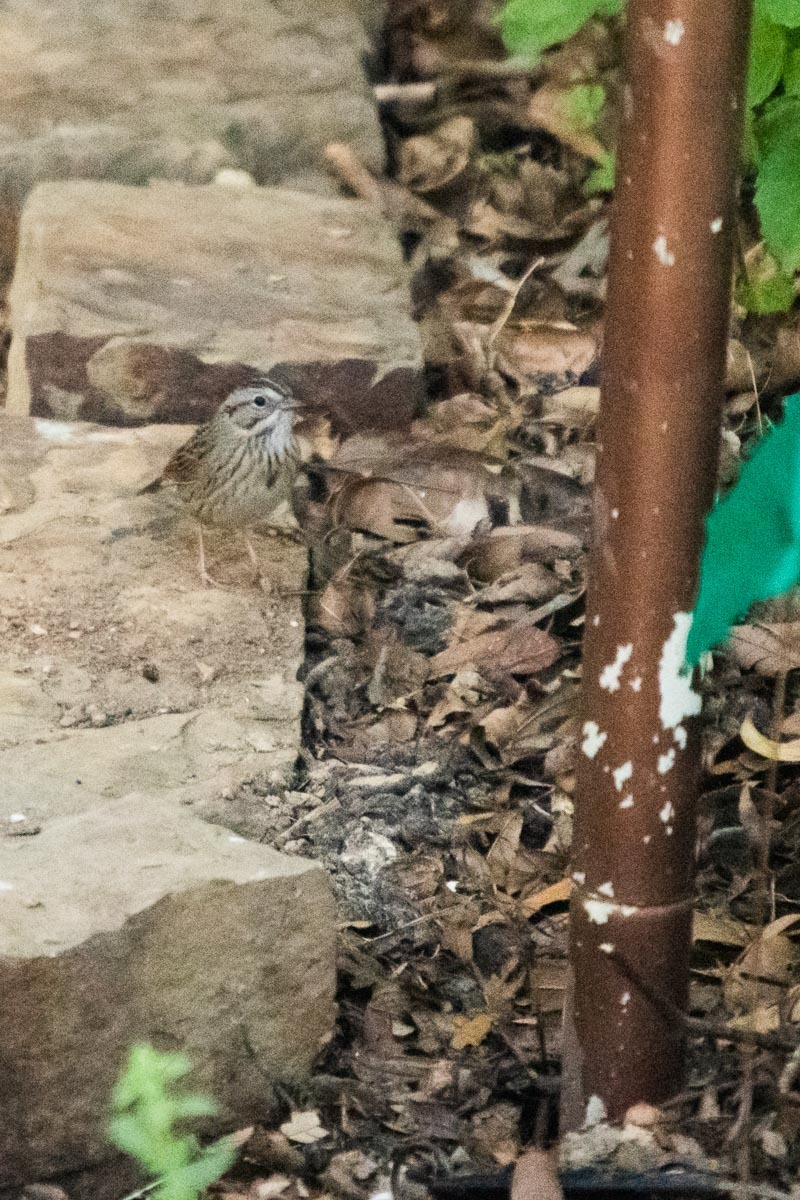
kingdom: Animalia
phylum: Chordata
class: Aves
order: Passeriformes
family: Passerellidae
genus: Melospiza
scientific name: Melospiza lincolnii
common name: Lincoln's sparrow
